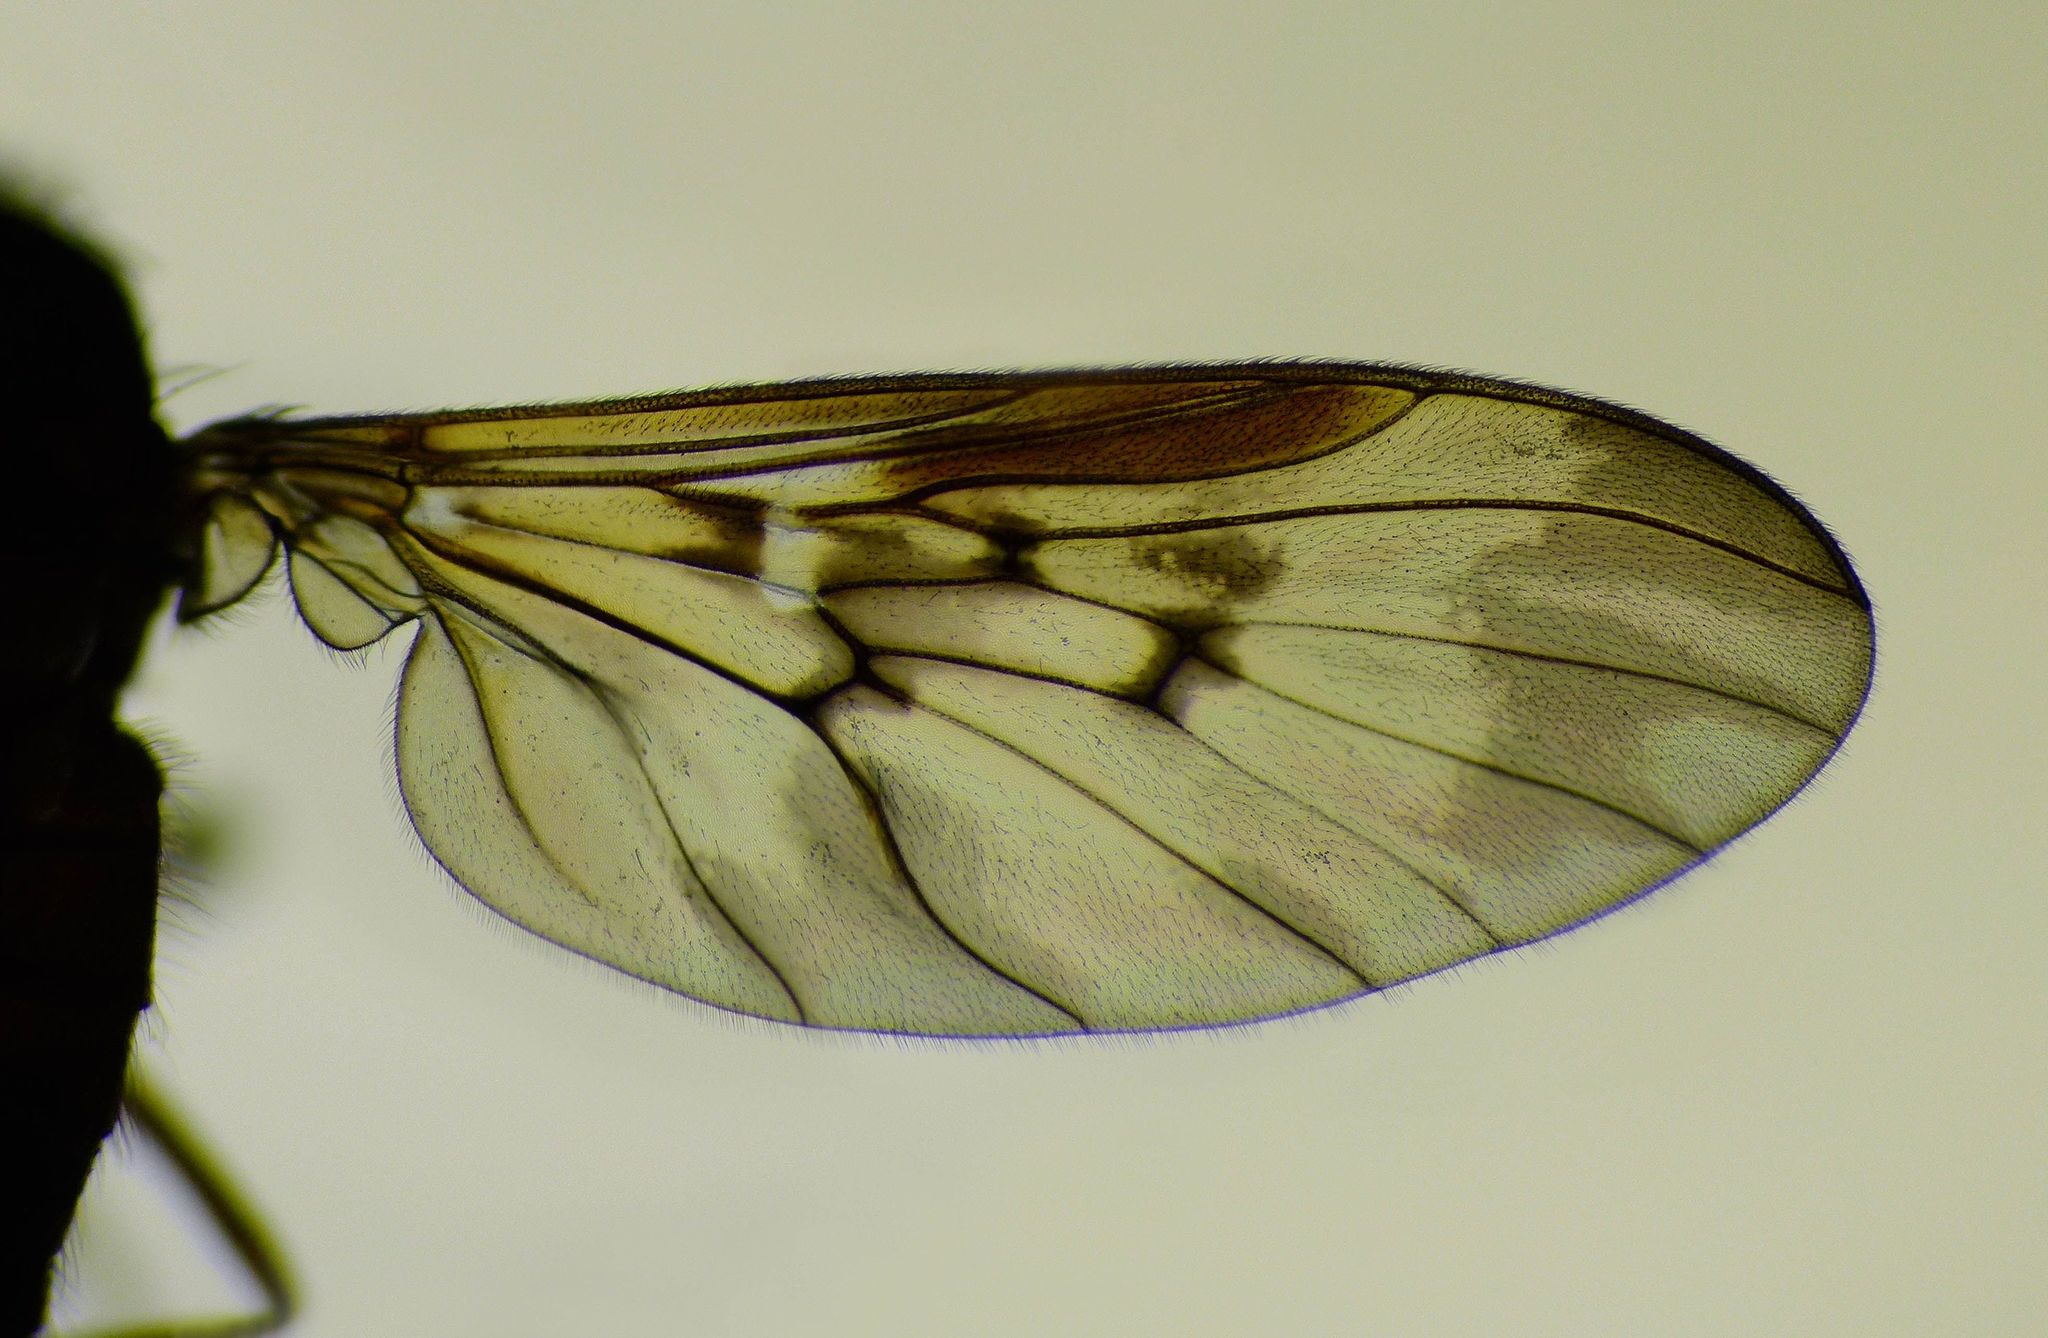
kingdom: Animalia
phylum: Arthropoda
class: Insecta
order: Diptera
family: Anisopodidae
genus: Sylvicola
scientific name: Sylvicola neozelandicus
